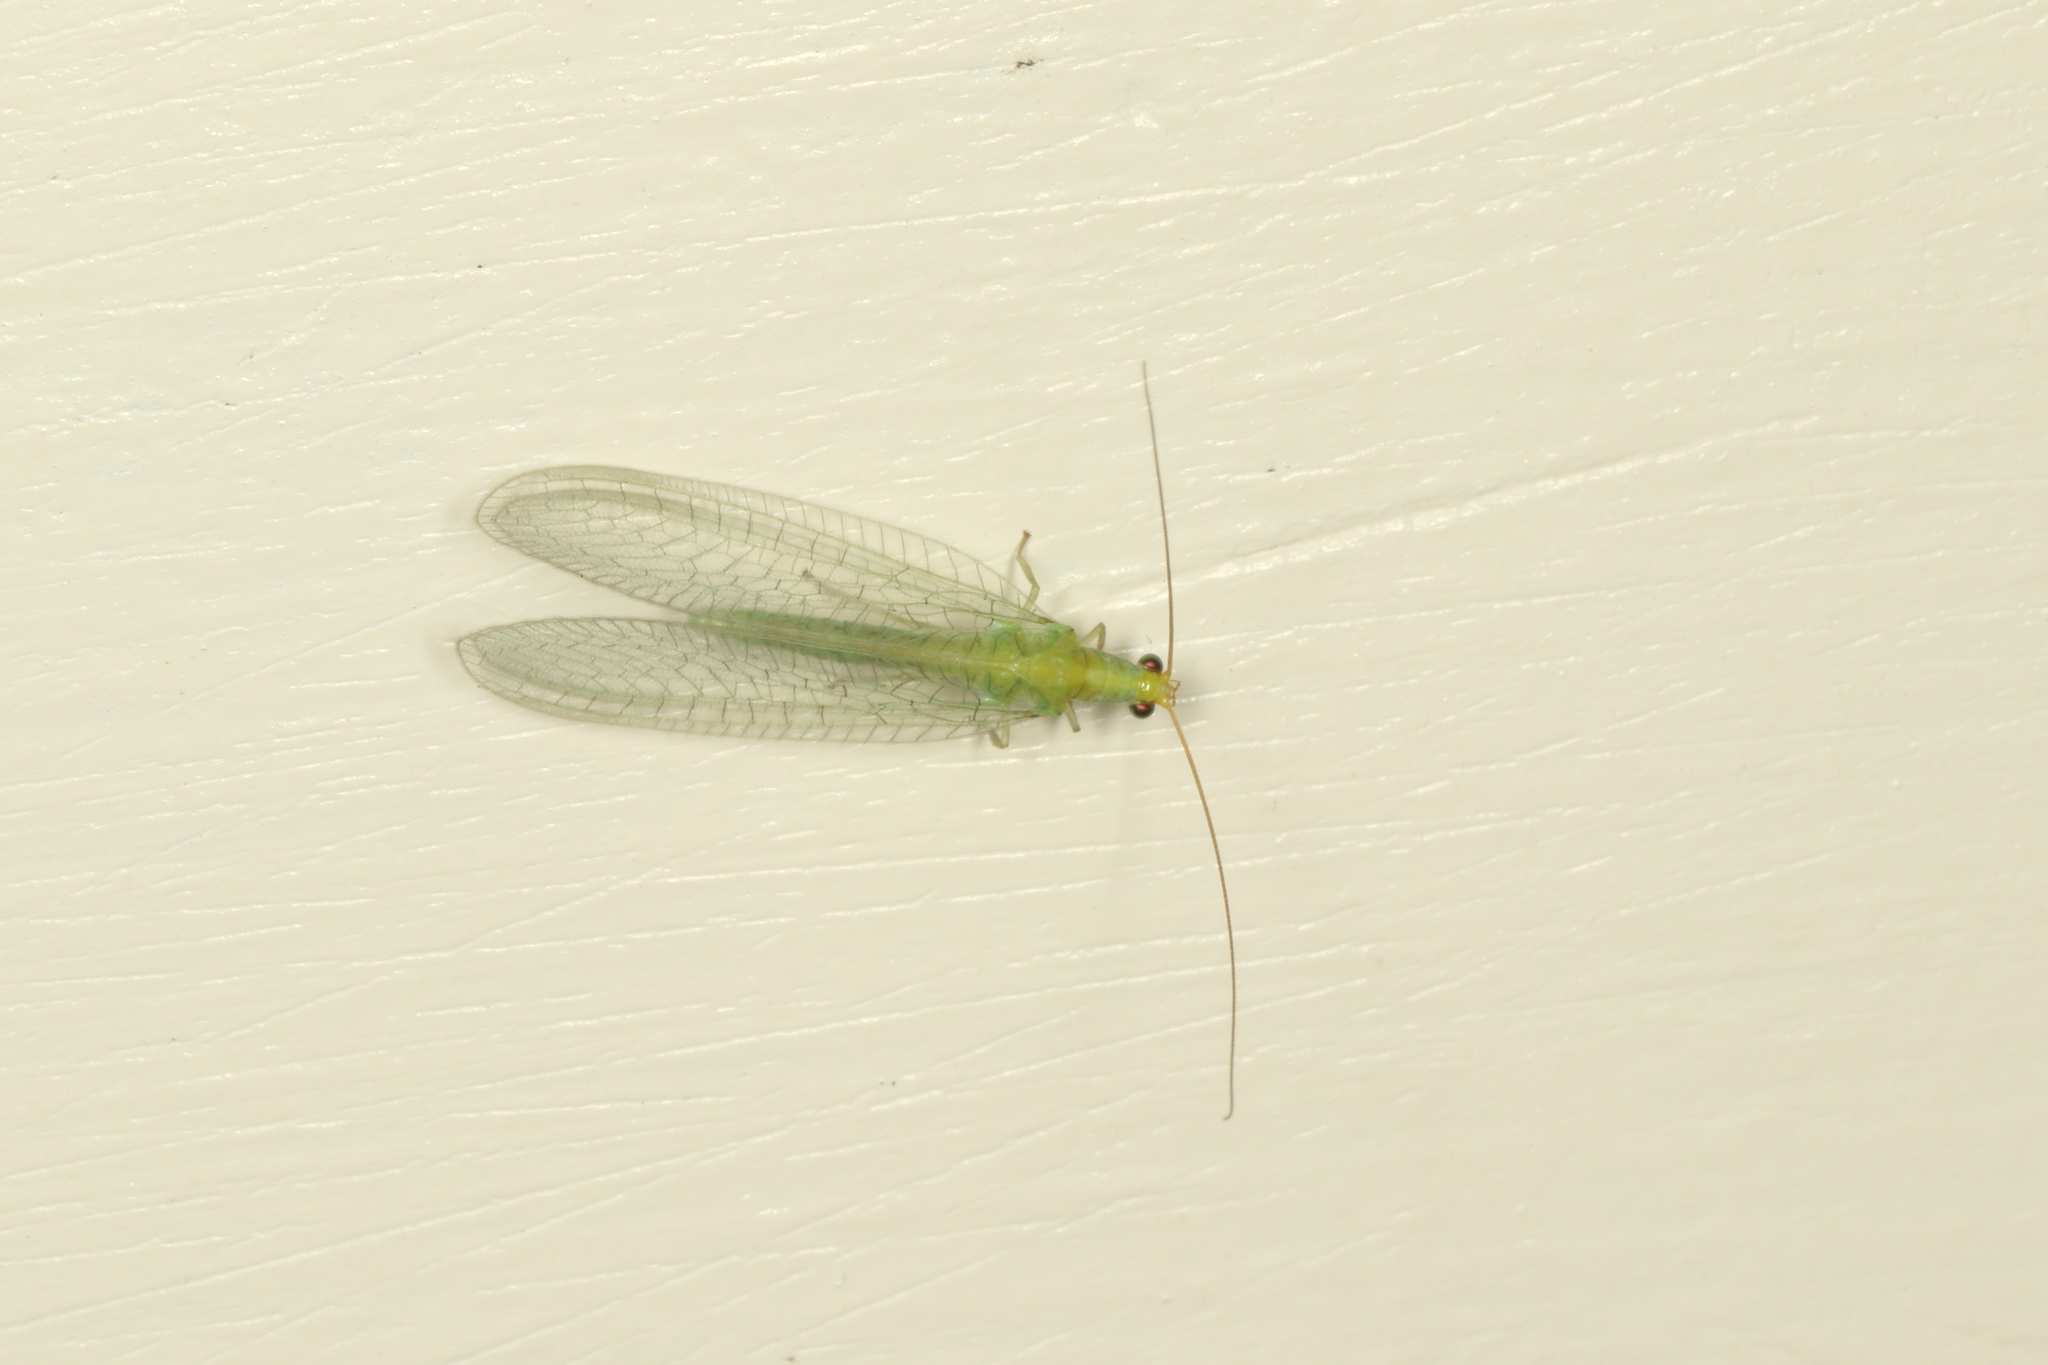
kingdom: Animalia
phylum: Arthropoda
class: Insecta
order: Neuroptera
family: Chrysopidae
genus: Mallada
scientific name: Mallada basalis
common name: Green lacewing
